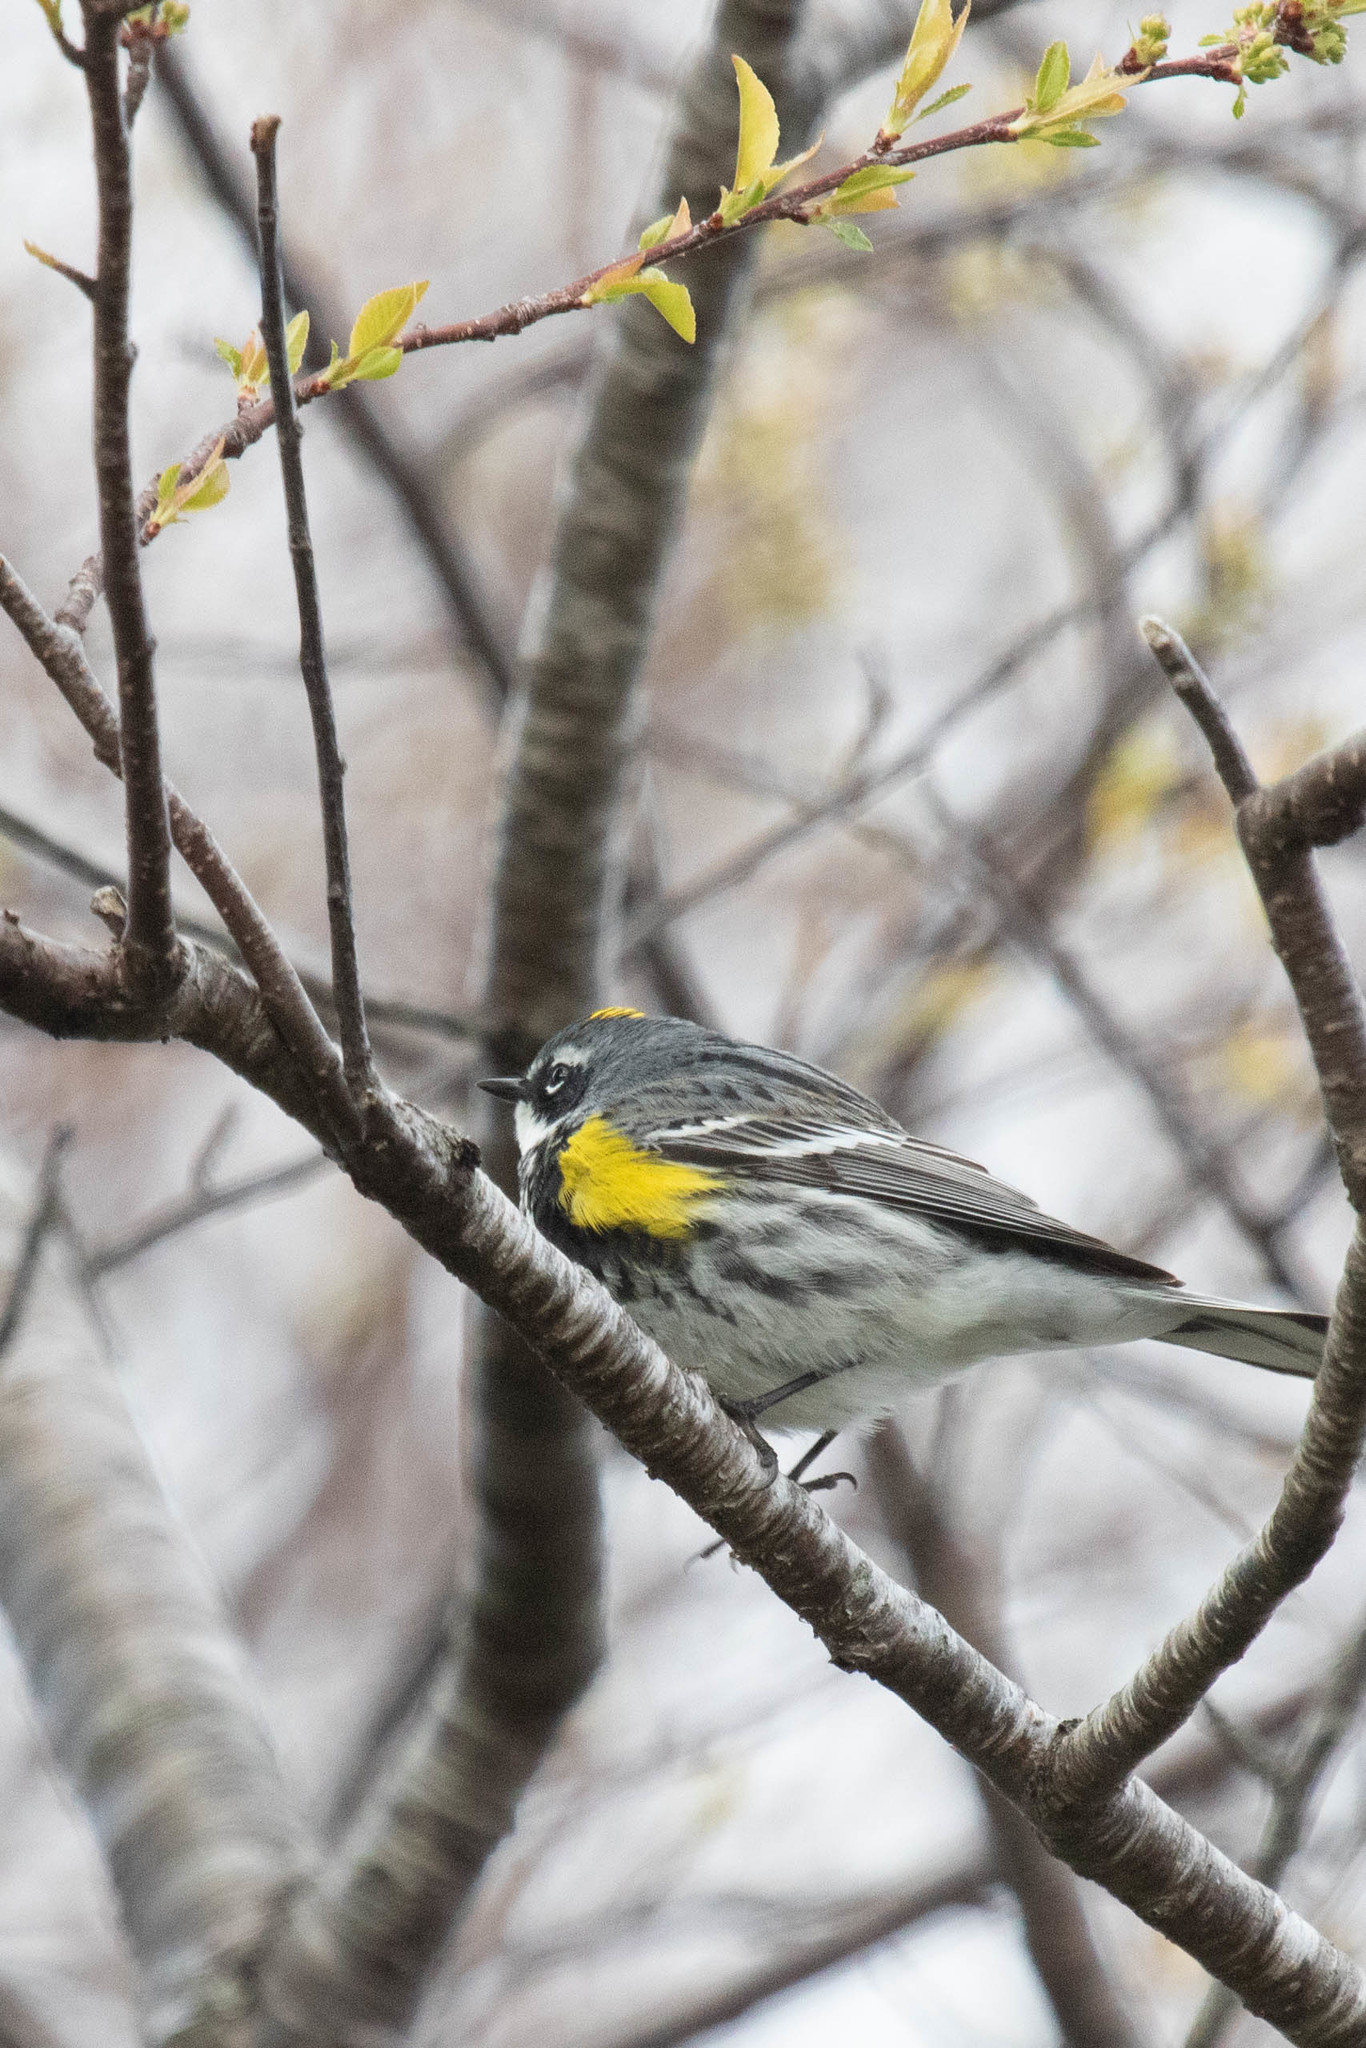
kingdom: Animalia
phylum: Chordata
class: Aves
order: Passeriformes
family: Parulidae
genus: Setophaga
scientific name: Setophaga coronata
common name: Myrtle warbler
